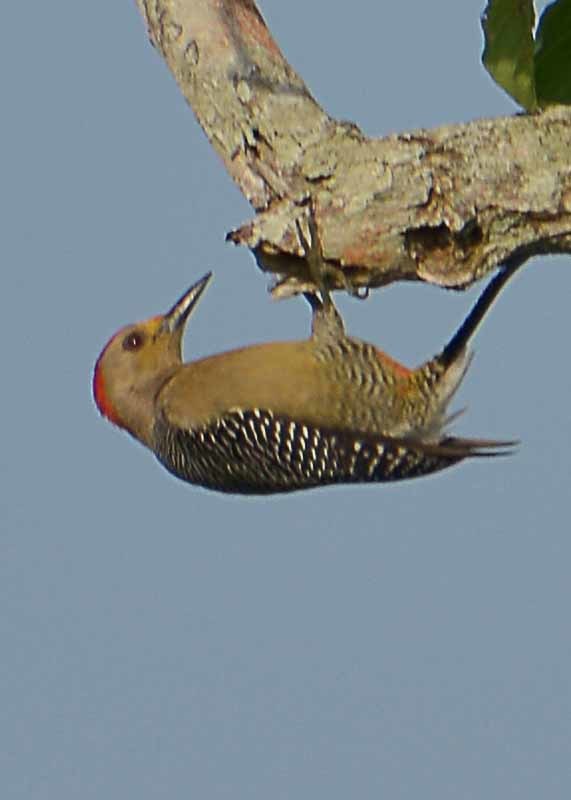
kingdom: Animalia
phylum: Chordata
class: Aves
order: Piciformes
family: Picidae
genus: Melanerpes
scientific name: Melanerpes aurifrons
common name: Golden-fronted woodpecker
